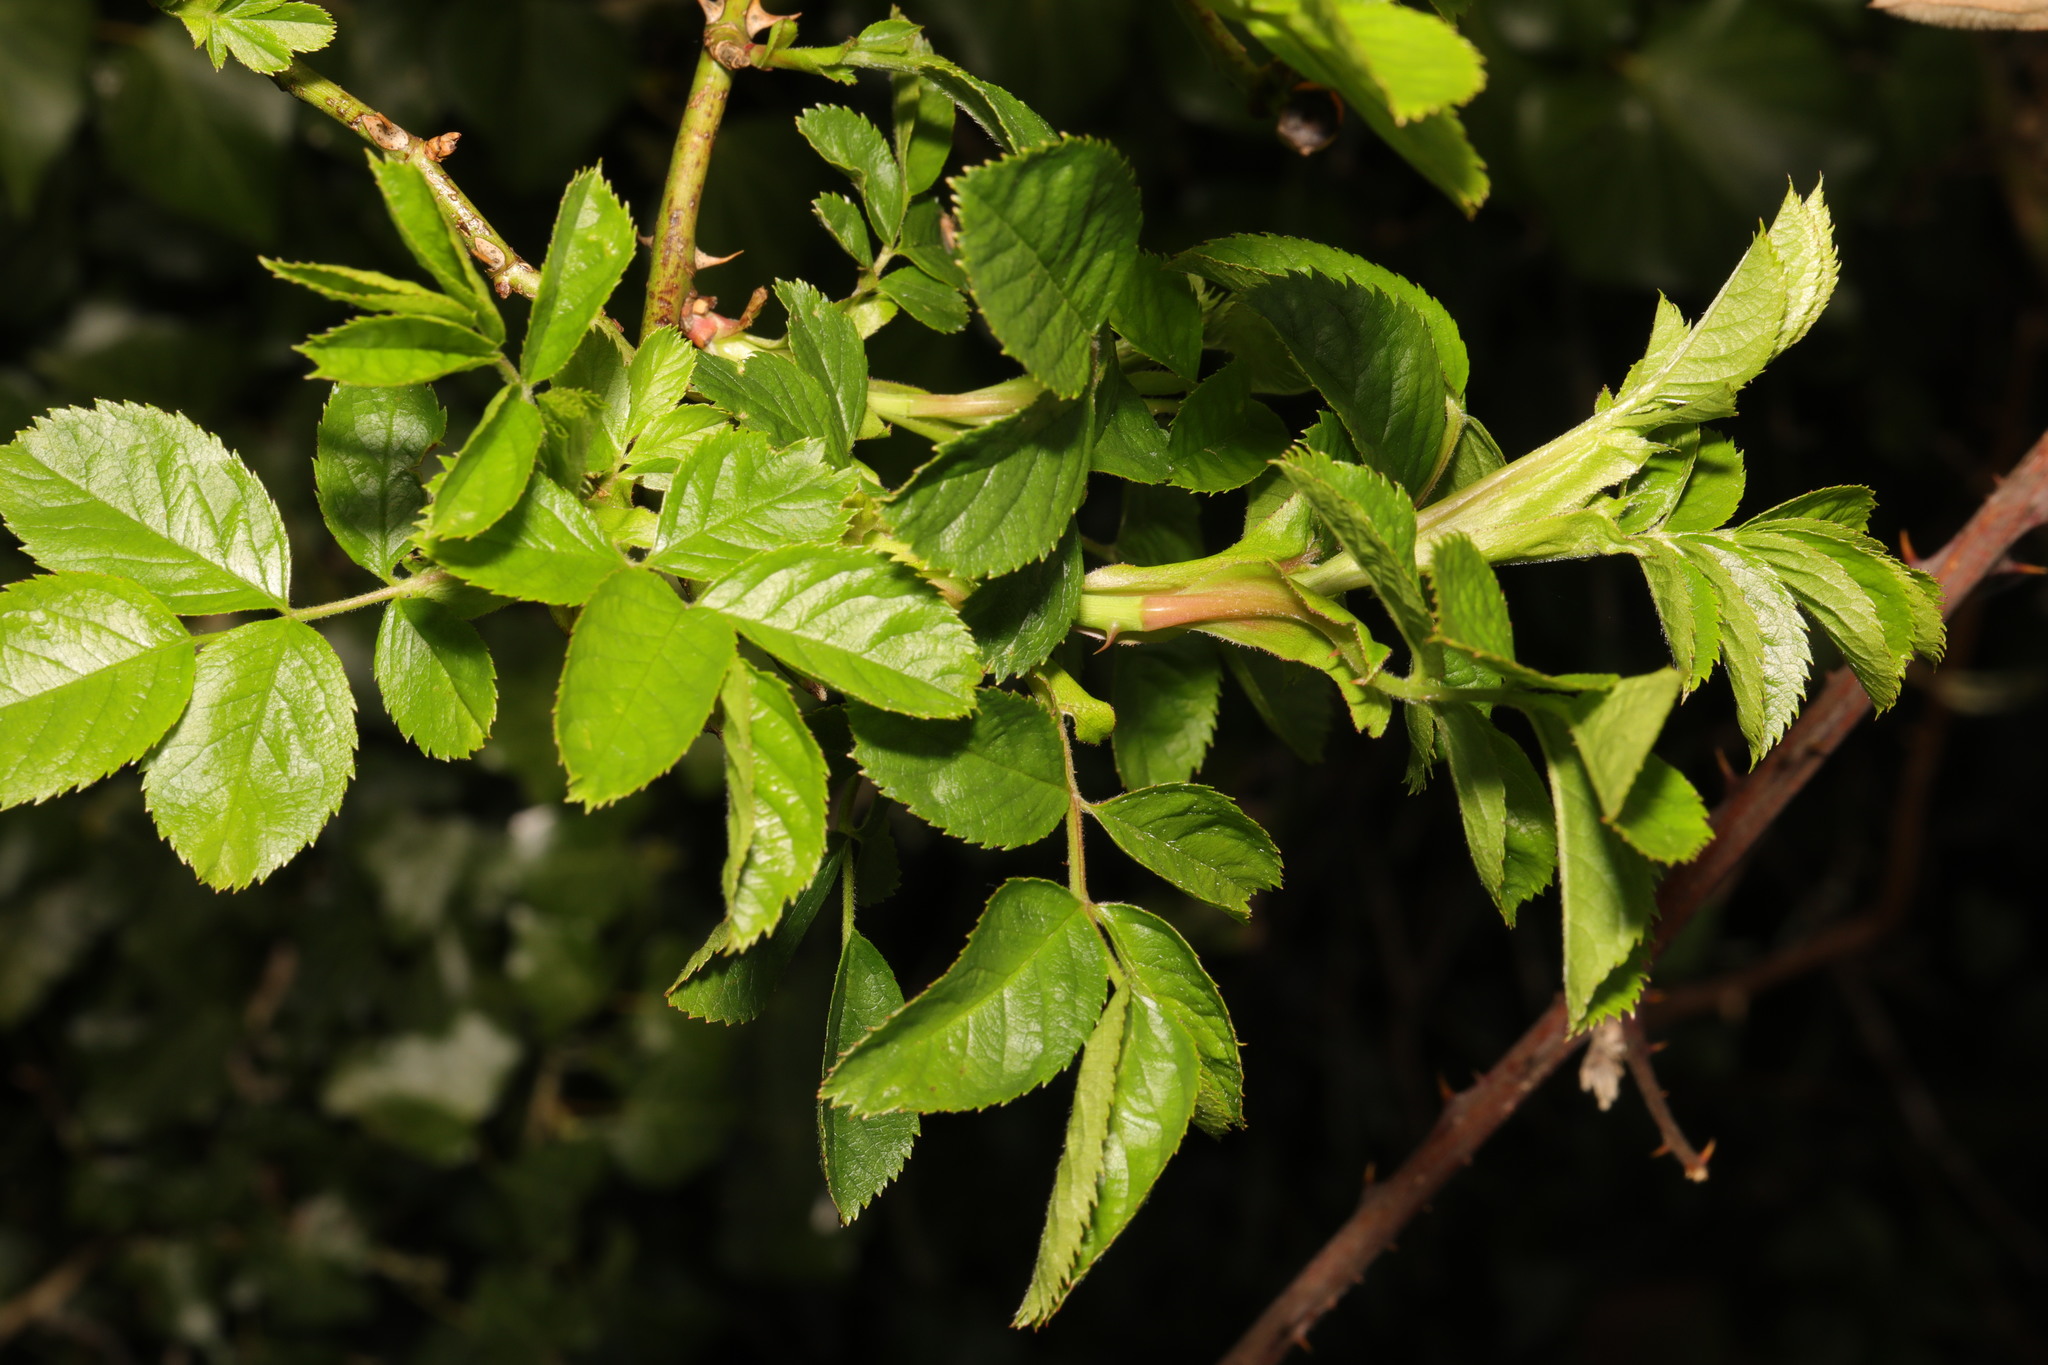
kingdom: Plantae
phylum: Tracheophyta
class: Magnoliopsida
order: Rosales
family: Rosaceae
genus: Rosa
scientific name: Rosa canina
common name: Dog rose
